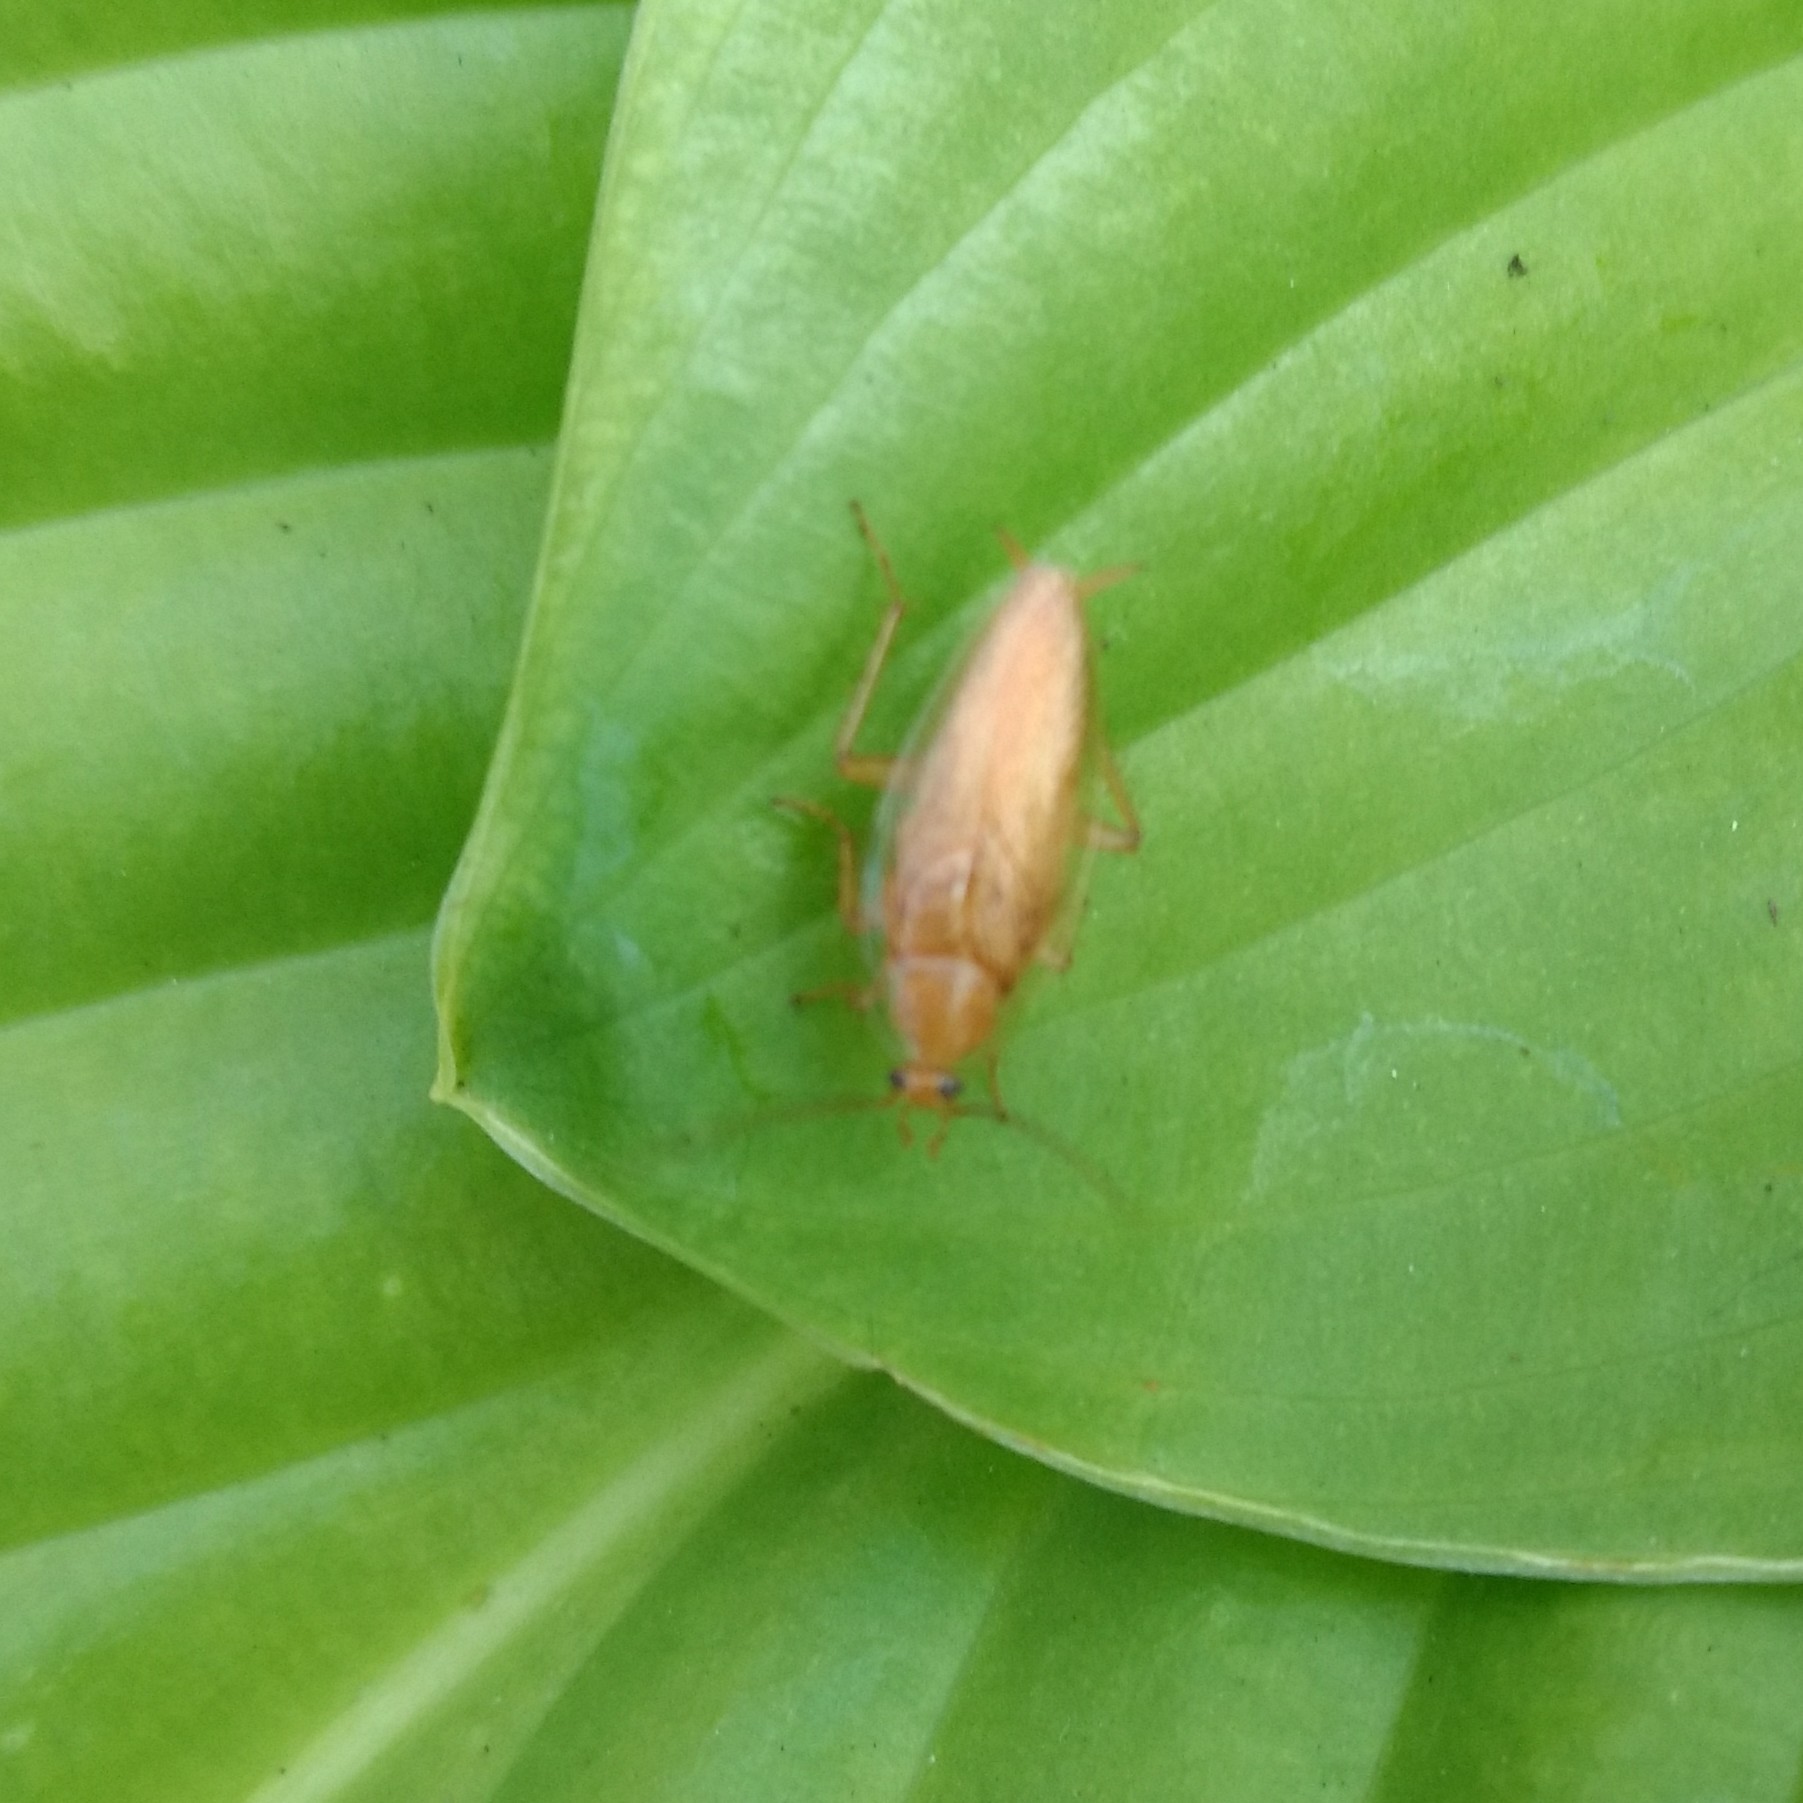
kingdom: Animalia
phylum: Arthropoda
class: Insecta
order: Blattodea
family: Ectobiidae
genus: Ectobius
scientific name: Ectobius pallidus
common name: Tawny cockroach
